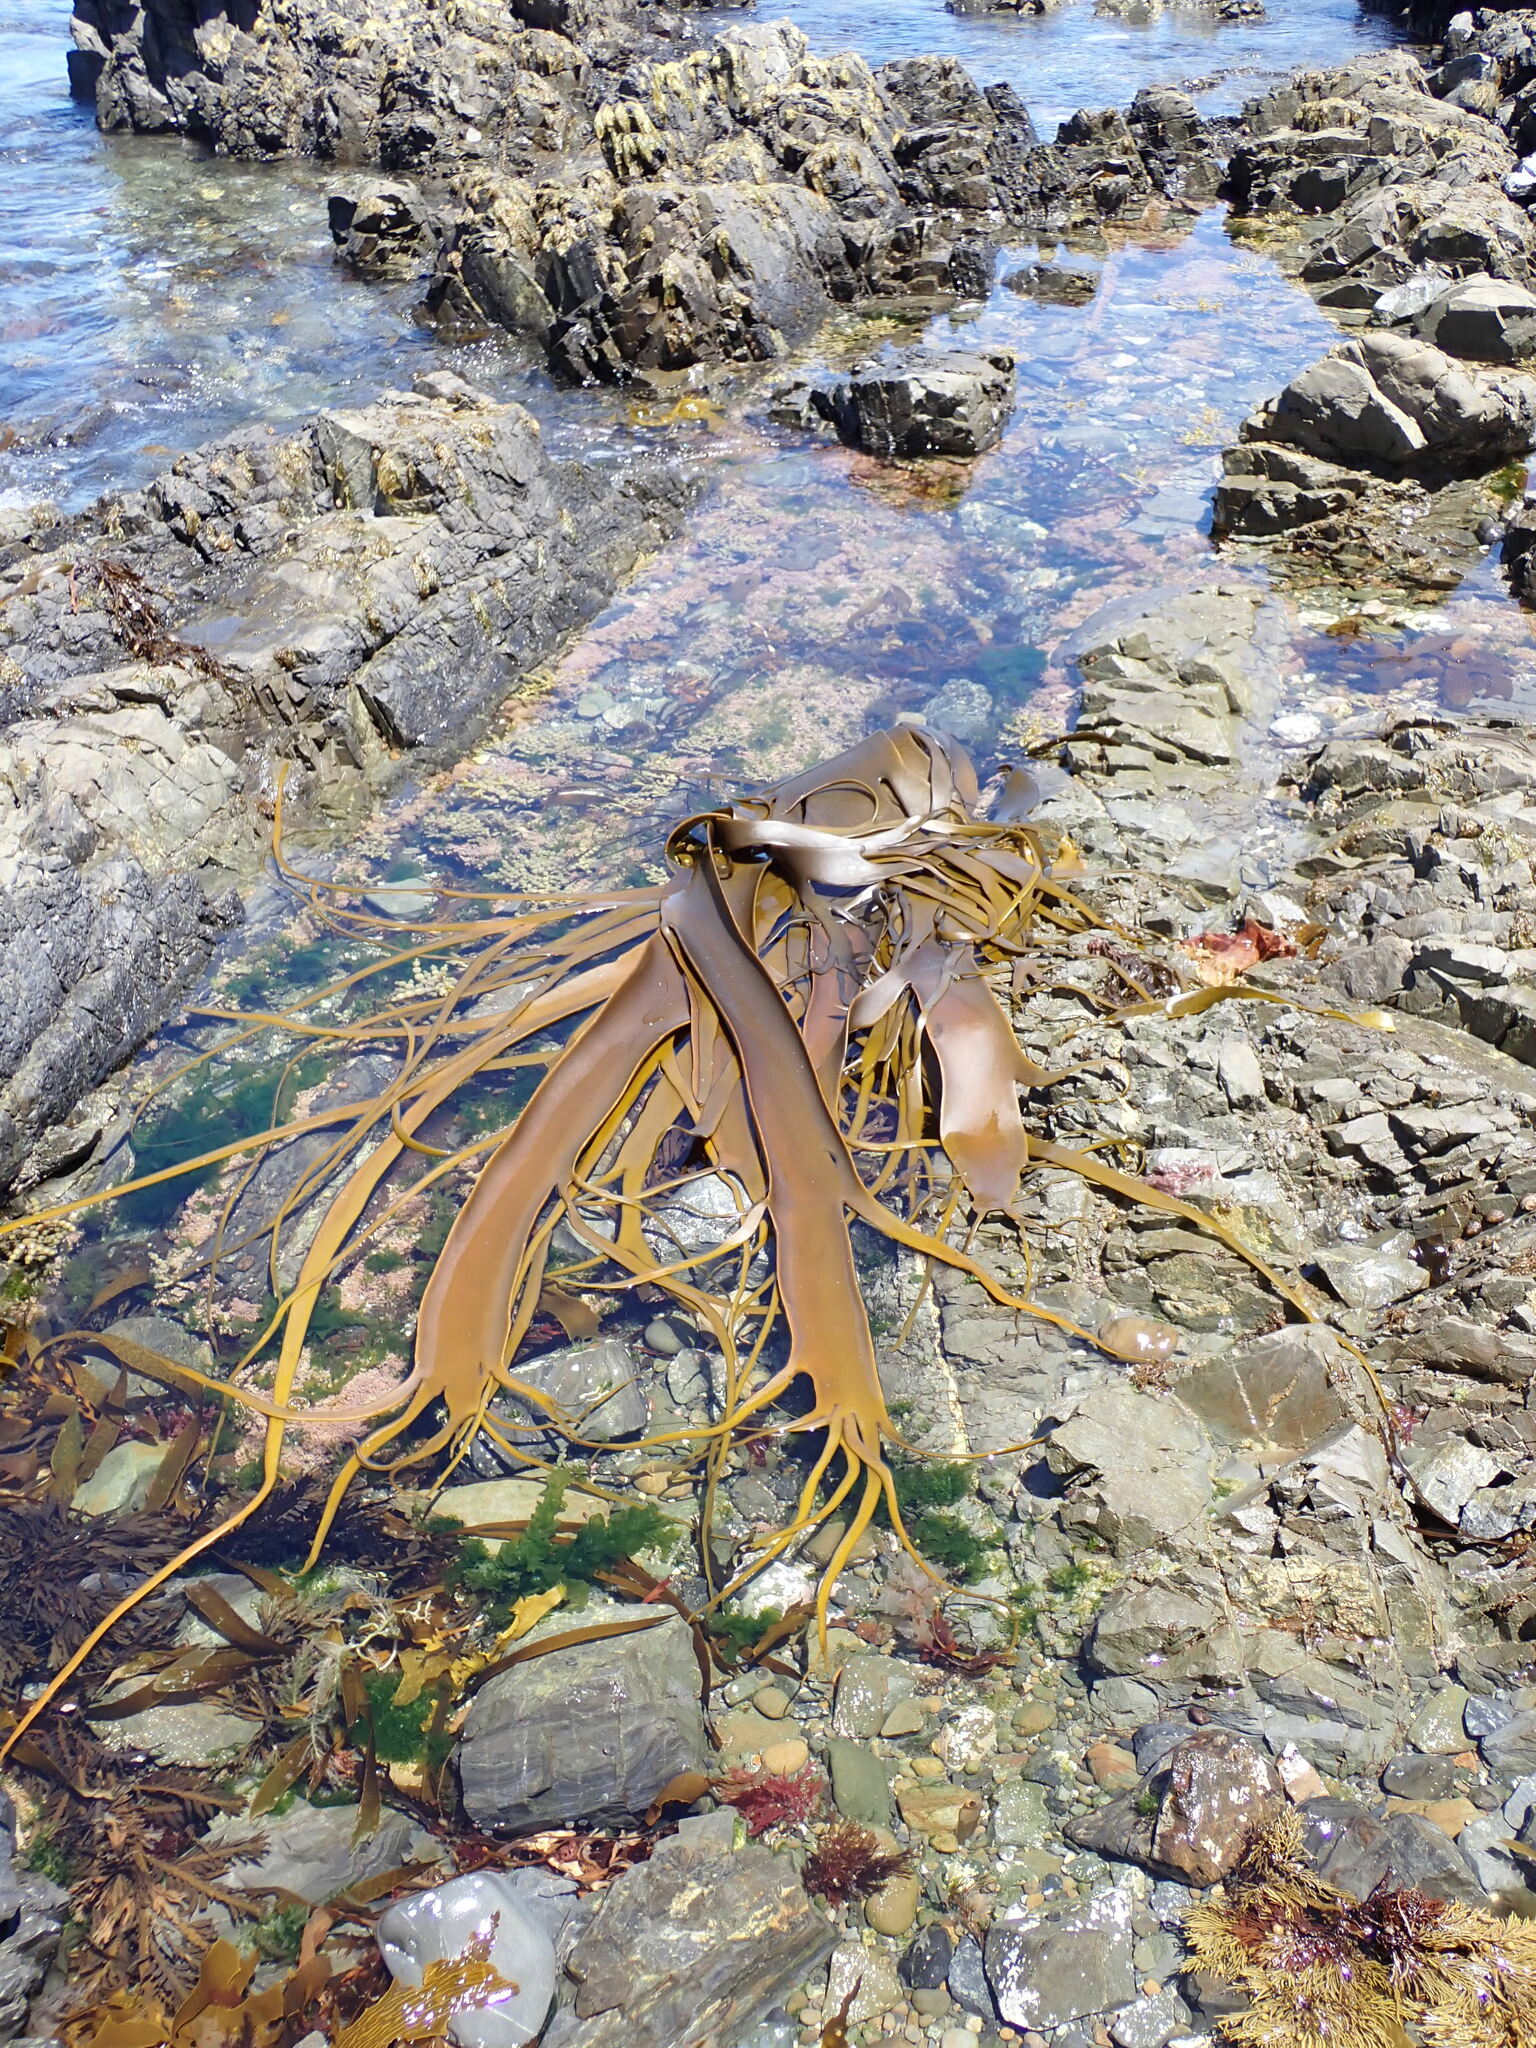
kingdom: Chromista
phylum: Ochrophyta
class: Phaeophyceae
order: Fucales
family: Durvillaeaceae
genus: Durvillaea
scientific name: Durvillaea antarctica
